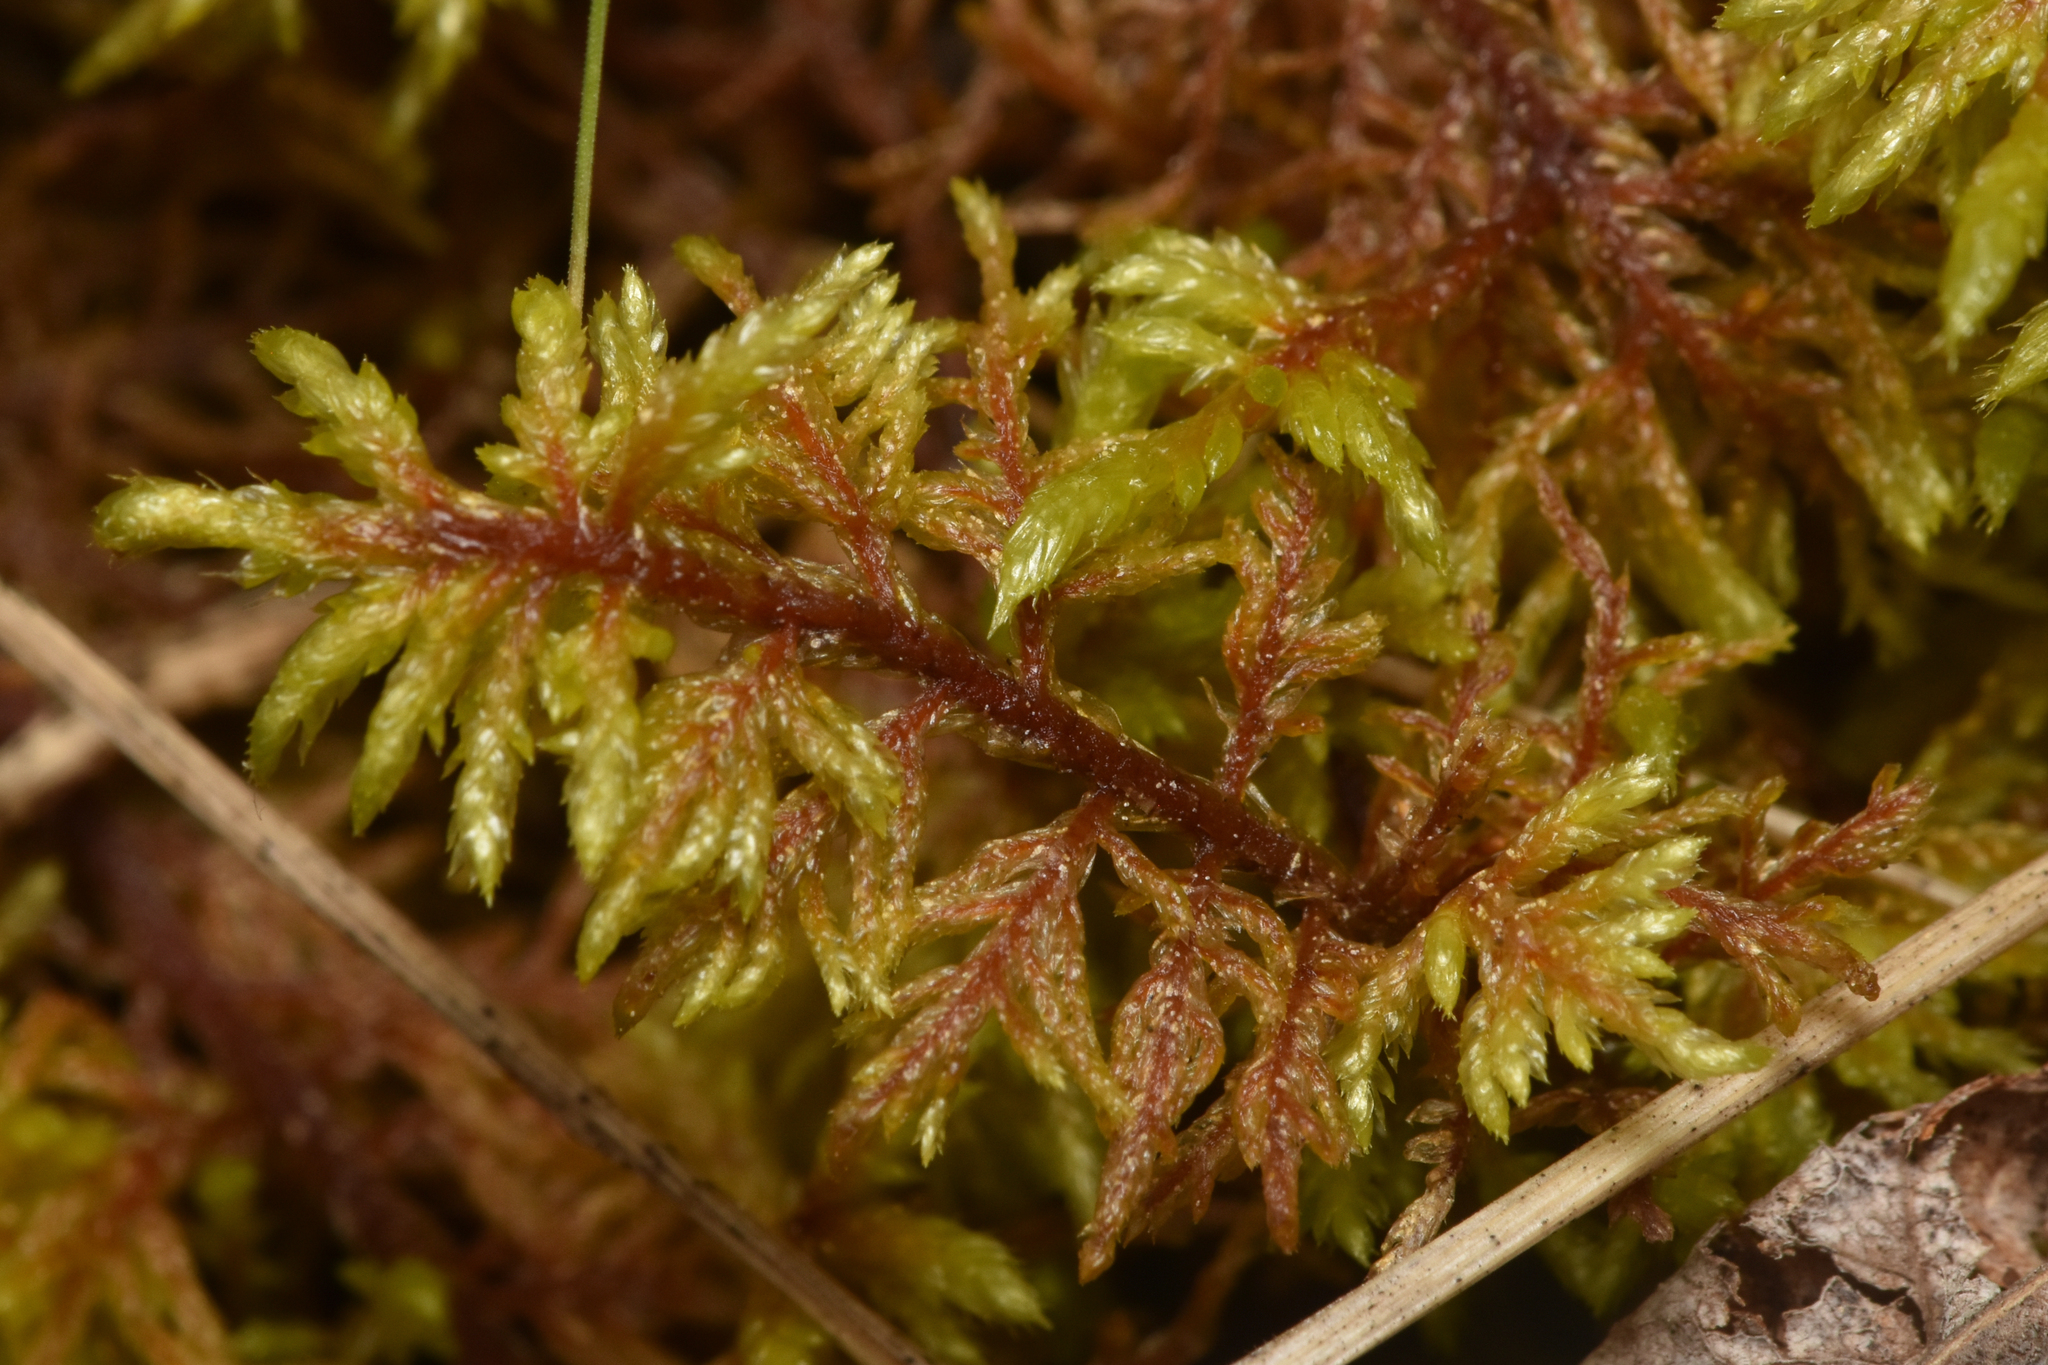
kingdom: Plantae
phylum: Bryophyta
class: Bryopsida
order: Hypnales
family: Hylocomiaceae
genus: Hylocomium
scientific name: Hylocomium splendens
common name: Stairstep moss
